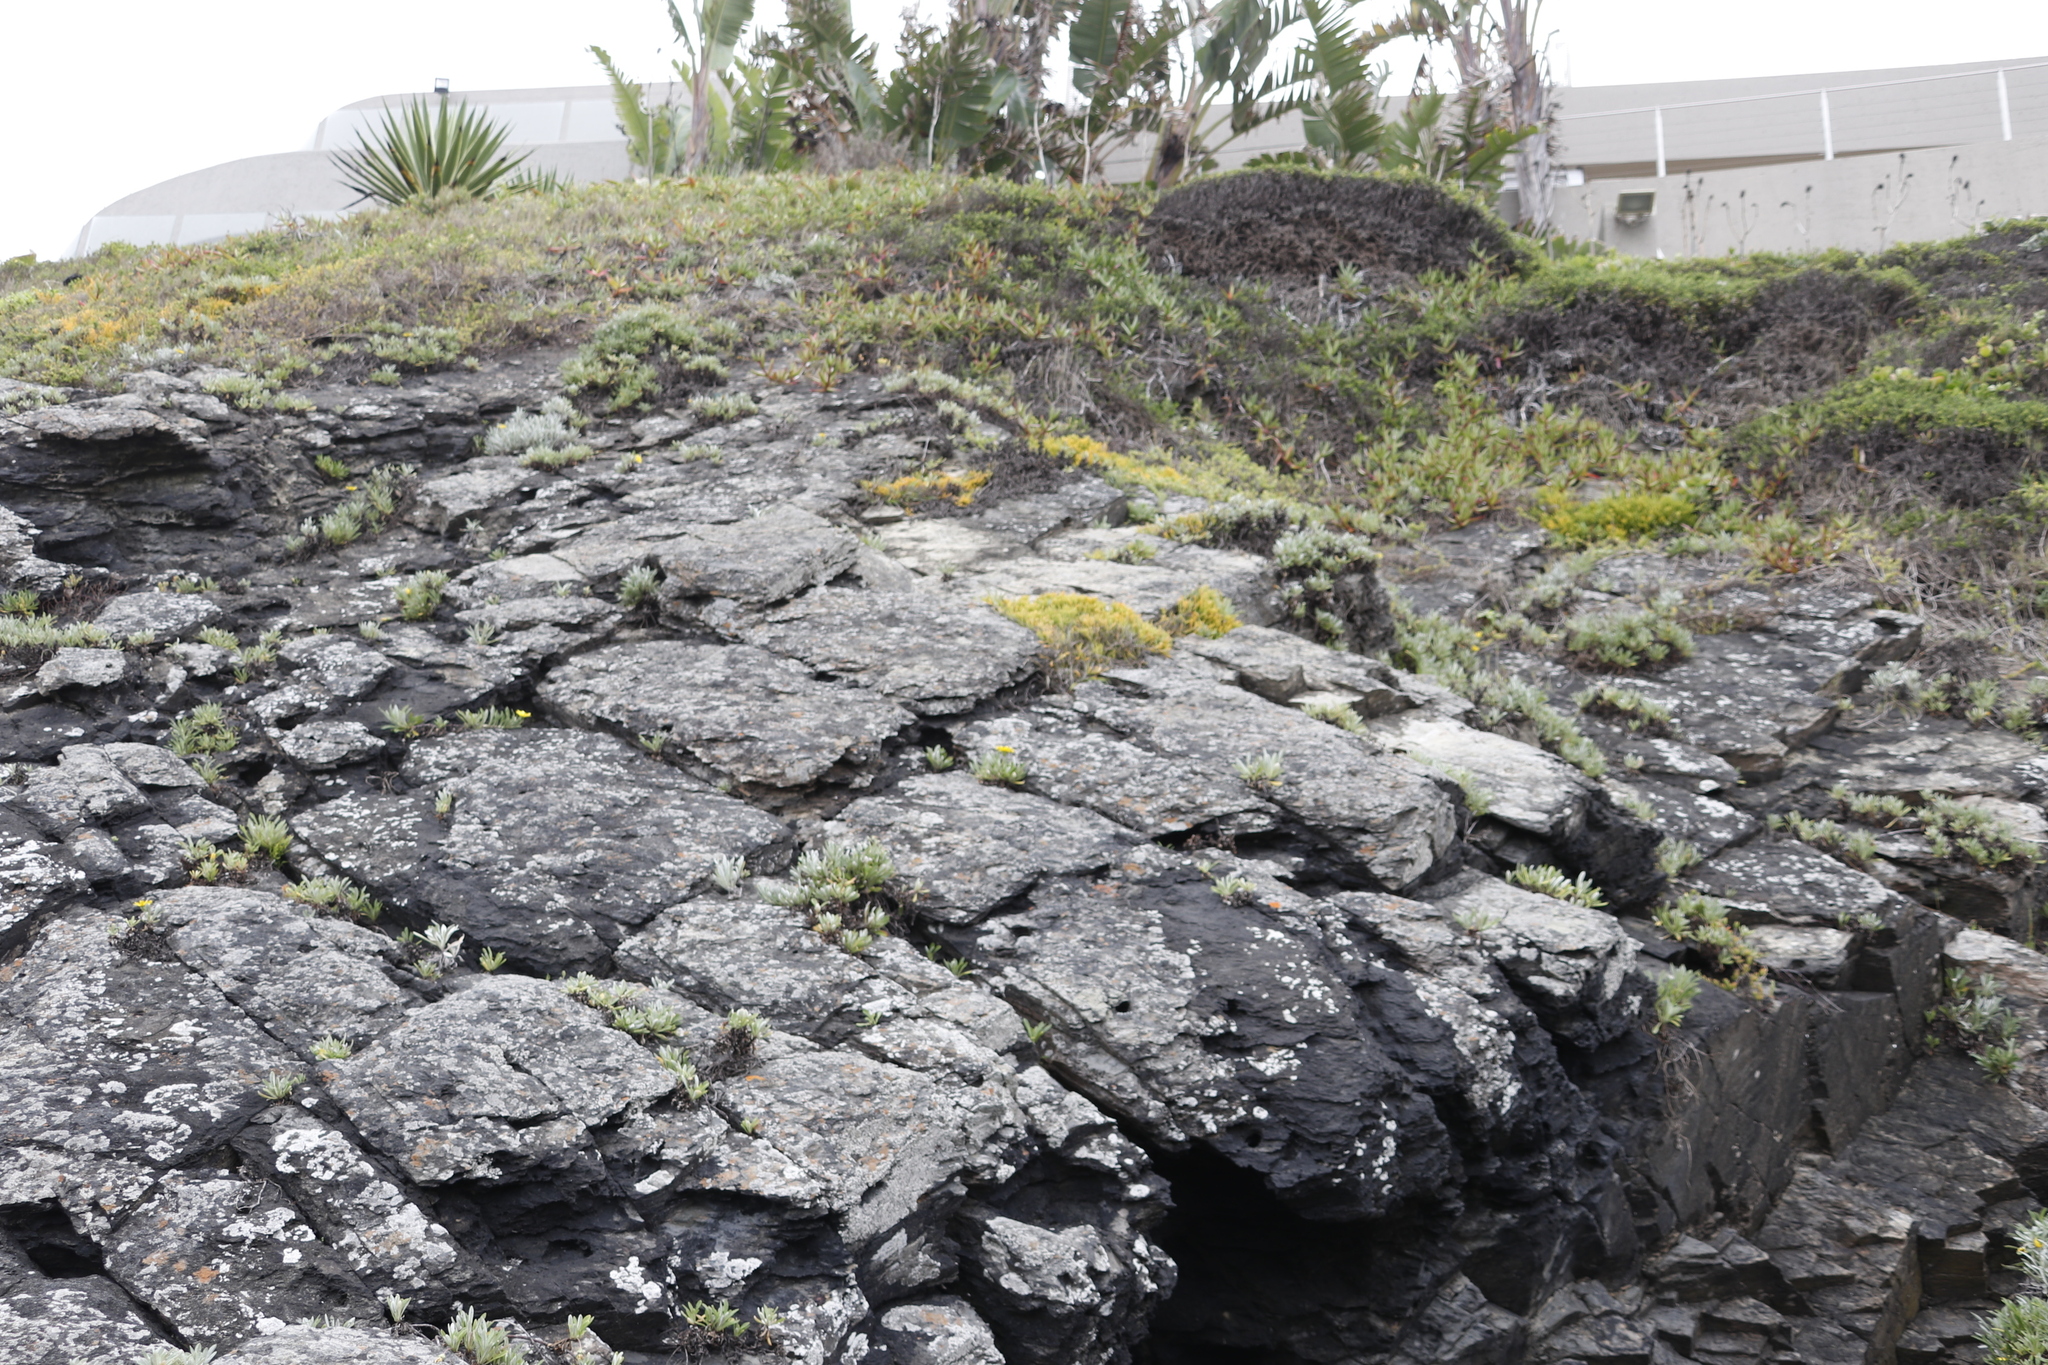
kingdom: Plantae
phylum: Tracheophyta
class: Magnoliopsida
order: Santalales
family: Thesiaceae
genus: Thesium
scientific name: Thesium fragile
